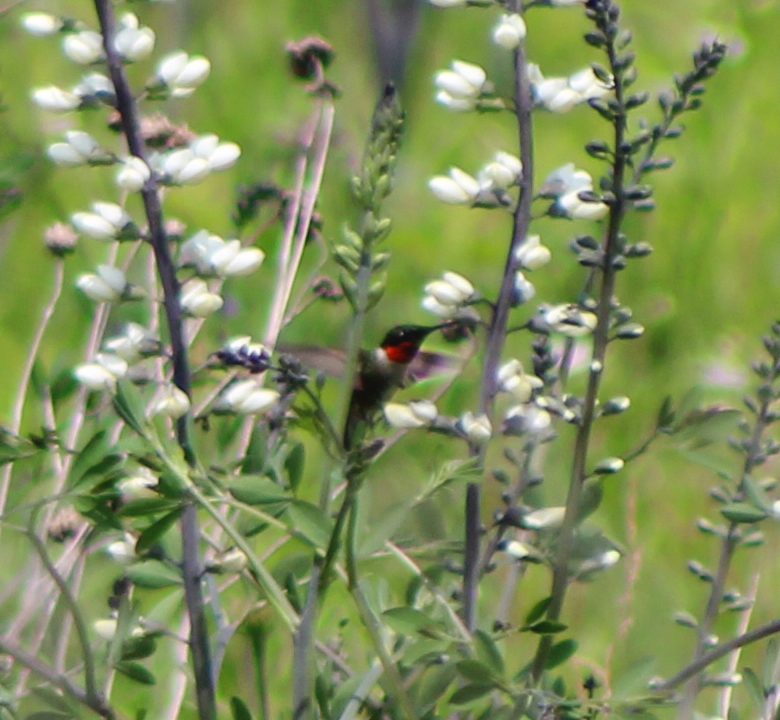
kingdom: Animalia
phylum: Chordata
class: Aves
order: Apodiformes
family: Trochilidae
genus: Archilochus
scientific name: Archilochus colubris
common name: Ruby-throated hummingbird
